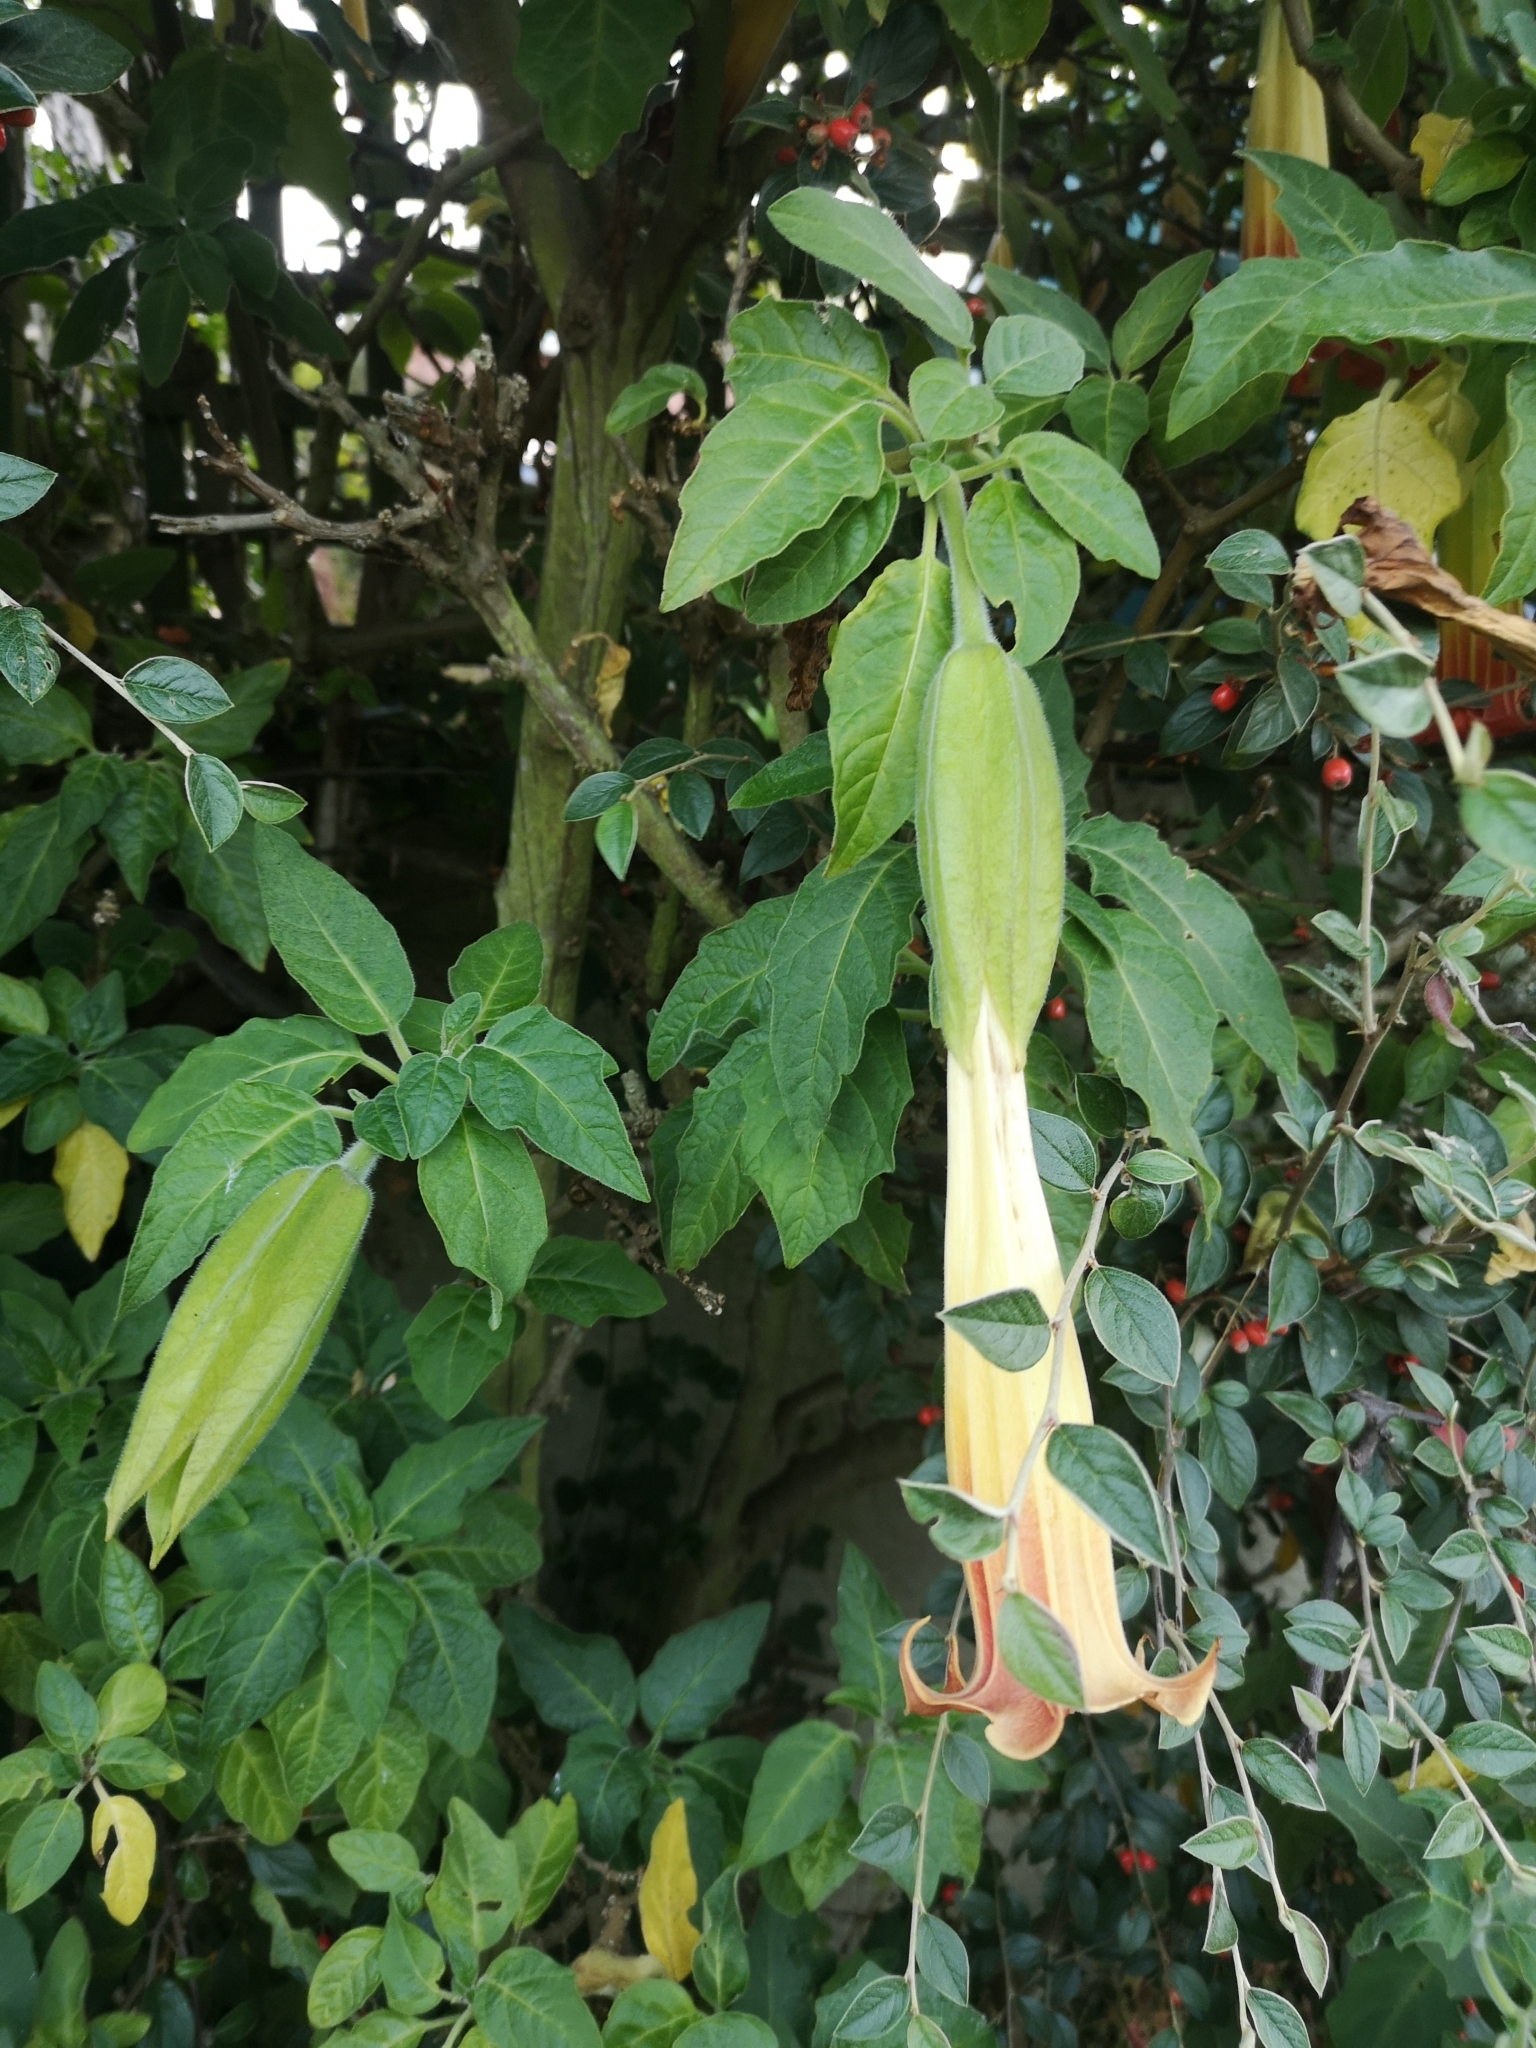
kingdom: Plantae
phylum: Tracheophyta
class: Magnoliopsida
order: Solanales
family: Solanaceae
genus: Brugmansia
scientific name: Brugmansia sanguinea
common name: Red floripontio
